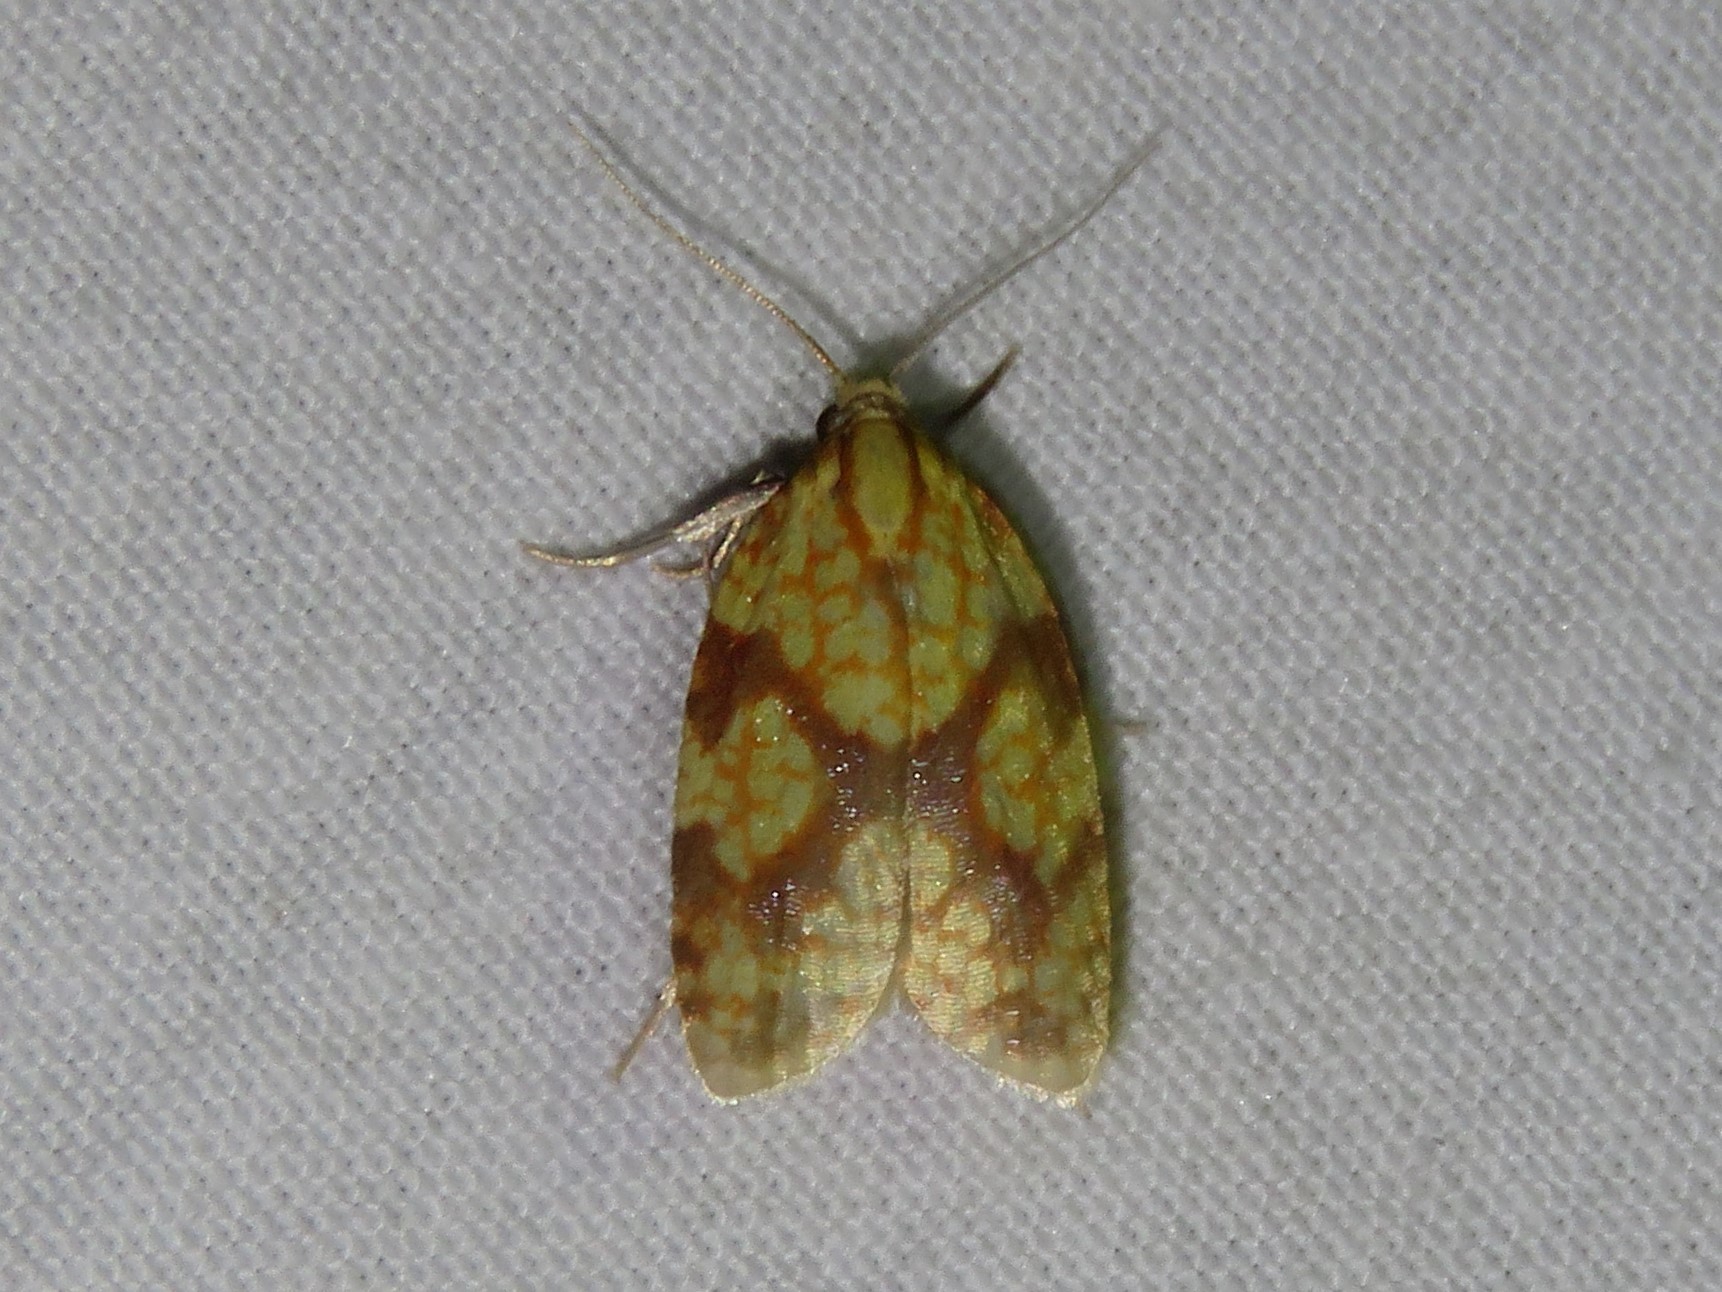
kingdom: Animalia
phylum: Arthropoda
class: Insecta
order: Lepidoptera
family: Tortricidae
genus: Sparganothis
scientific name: Sparganothis sulfureana
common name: Sparganothis fruitworm moth
